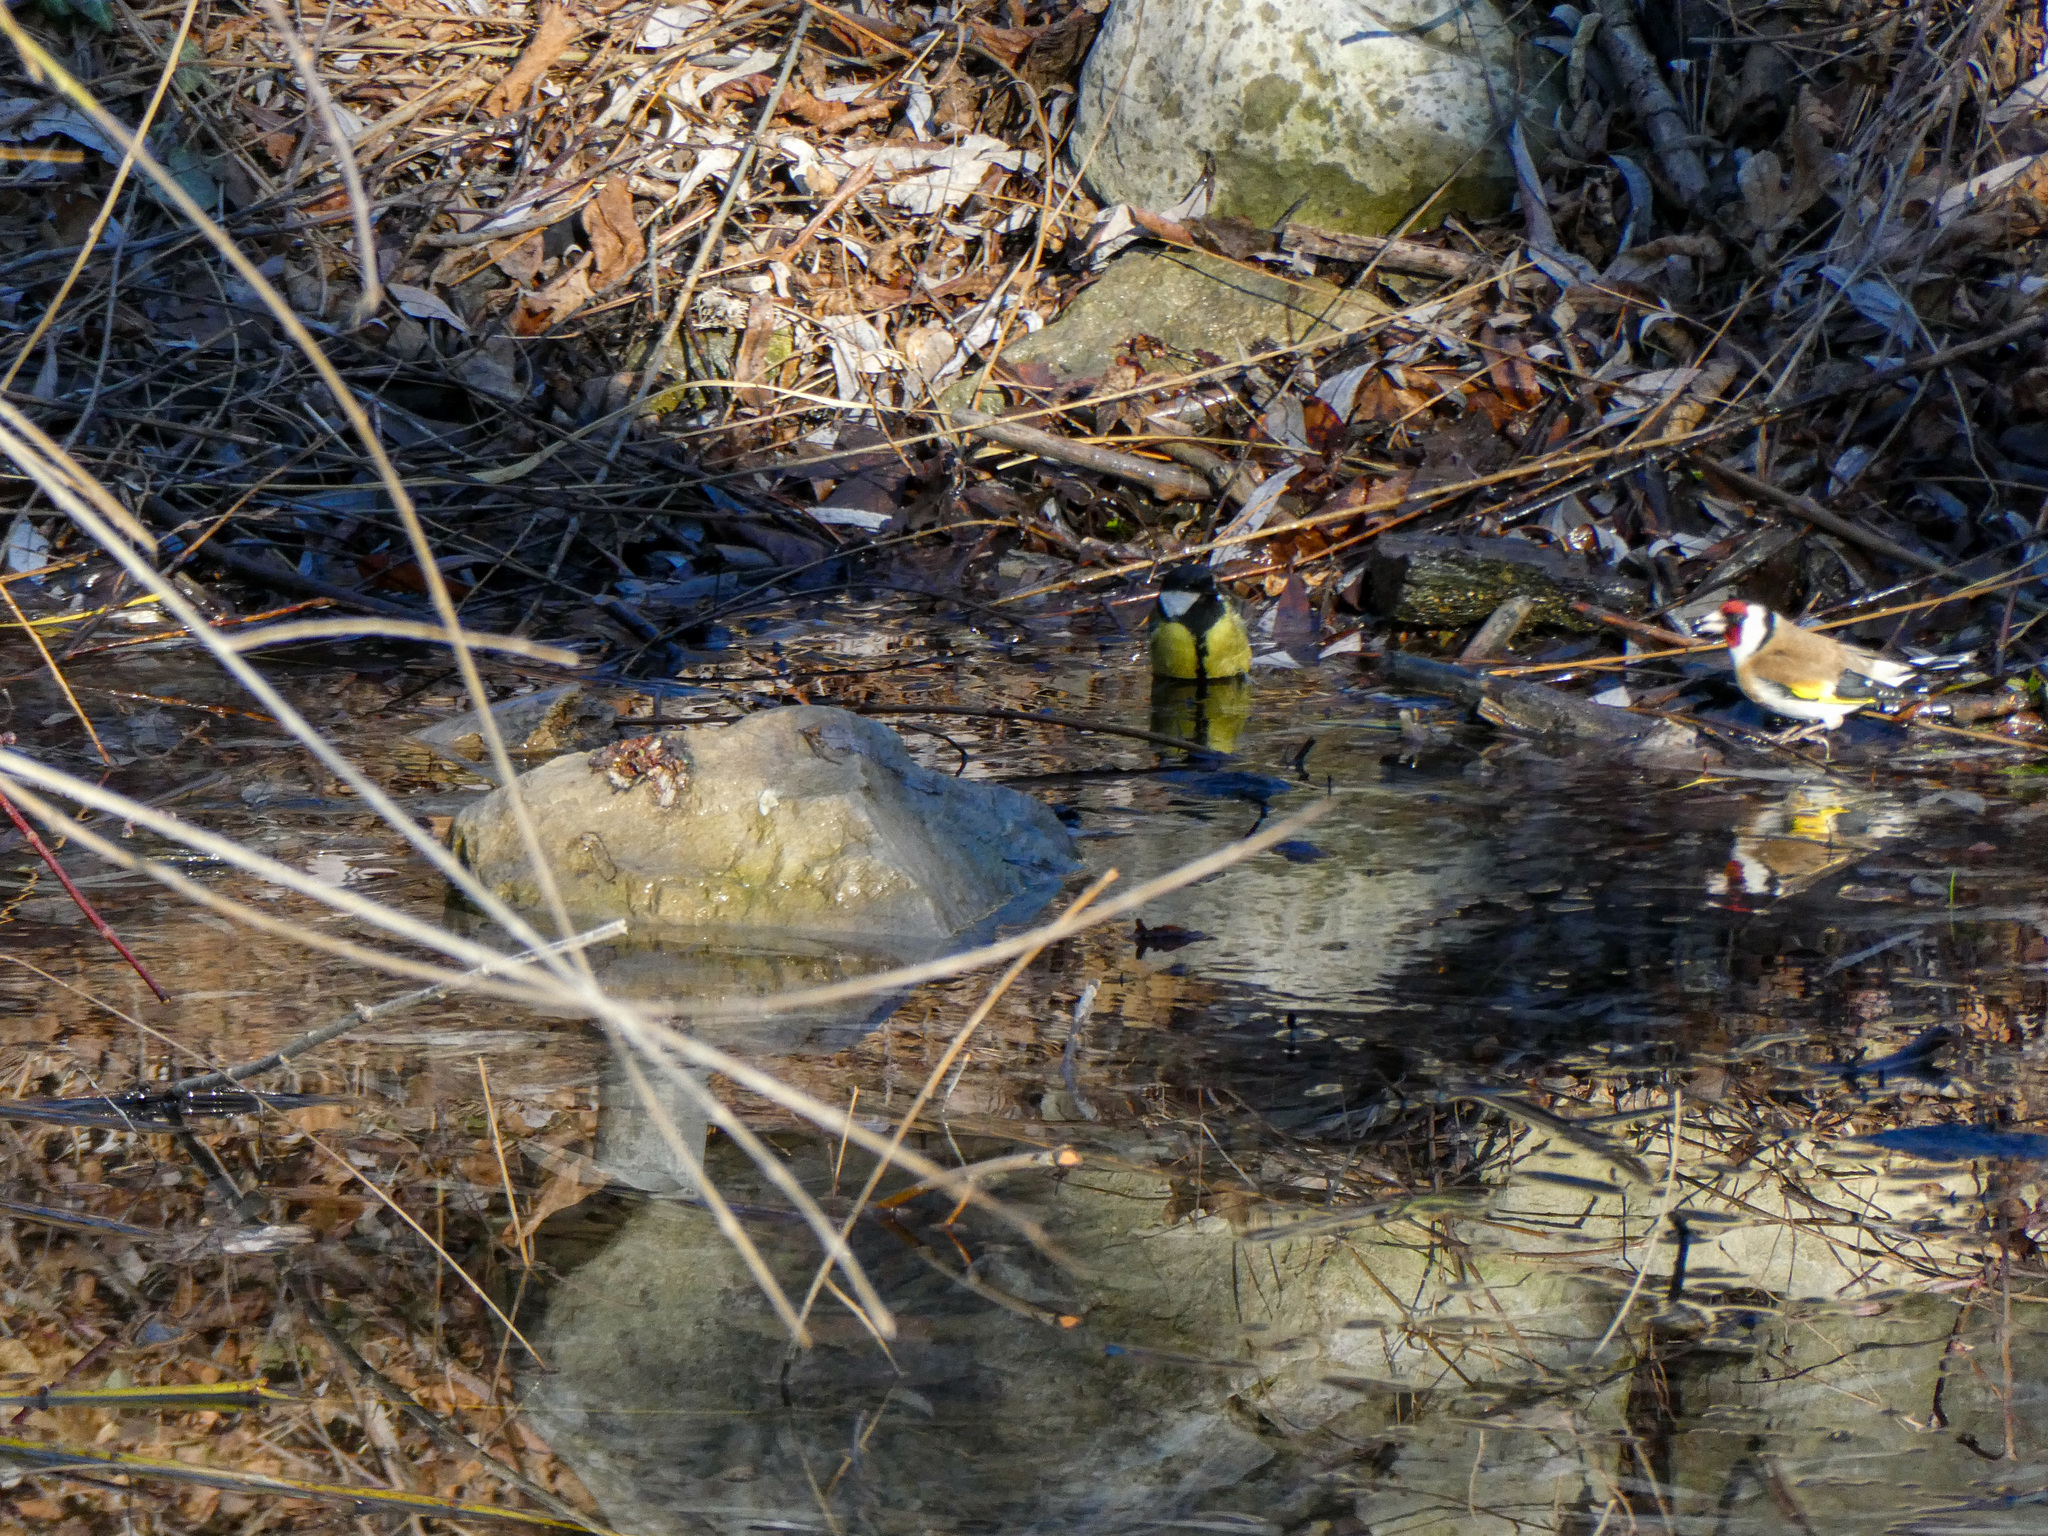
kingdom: Animalia
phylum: Chordata
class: Aves
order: Passeriformes
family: Paridae
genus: Parus
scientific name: Parus major
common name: Great tit
